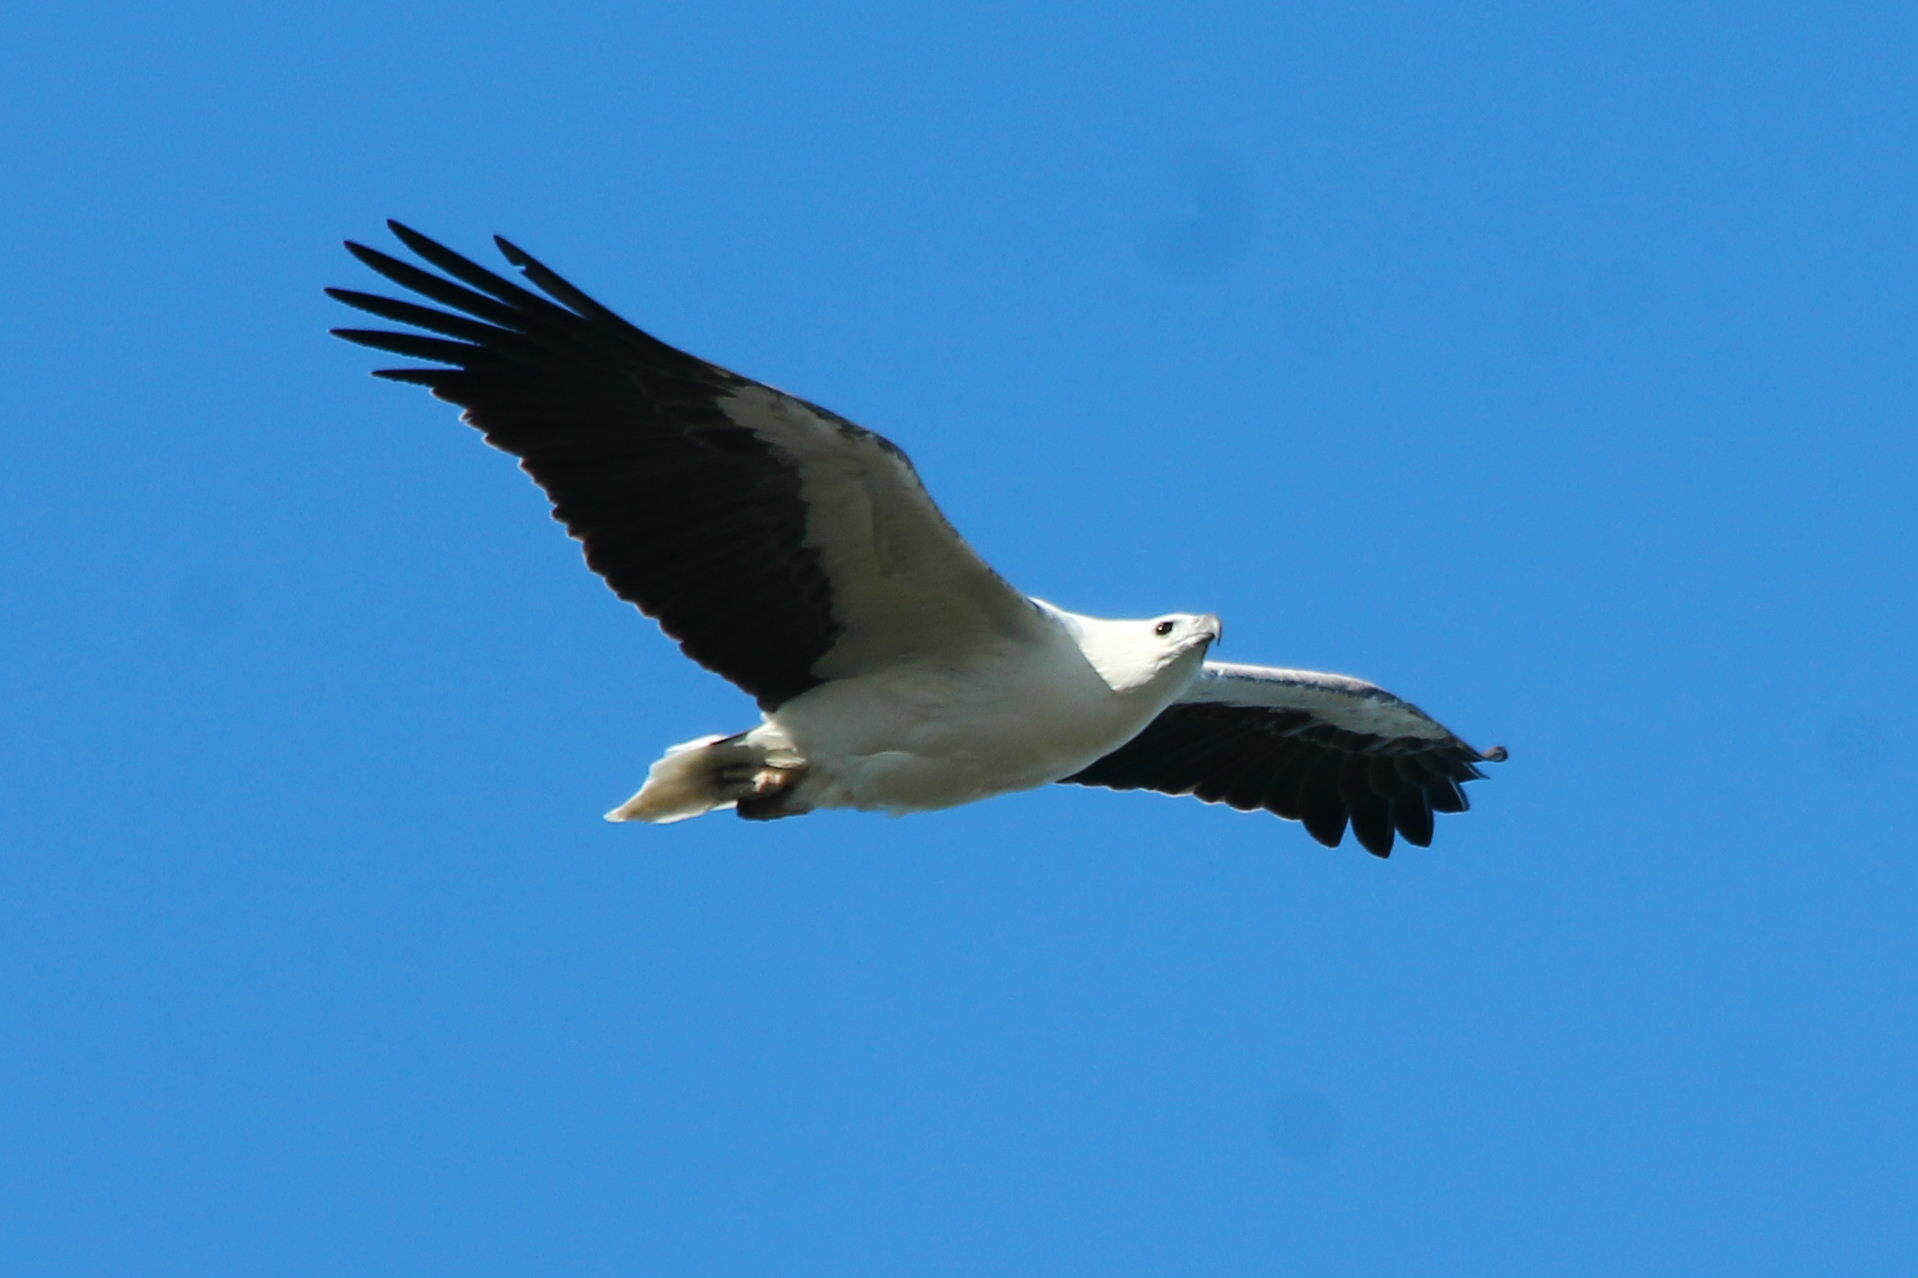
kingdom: Animalia
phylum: Chordata
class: Aves
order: Accipitriformes
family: Accipitridae
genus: Haliaeetus
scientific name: Haliaeetus leucogaster
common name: White-bellied sea eagle
